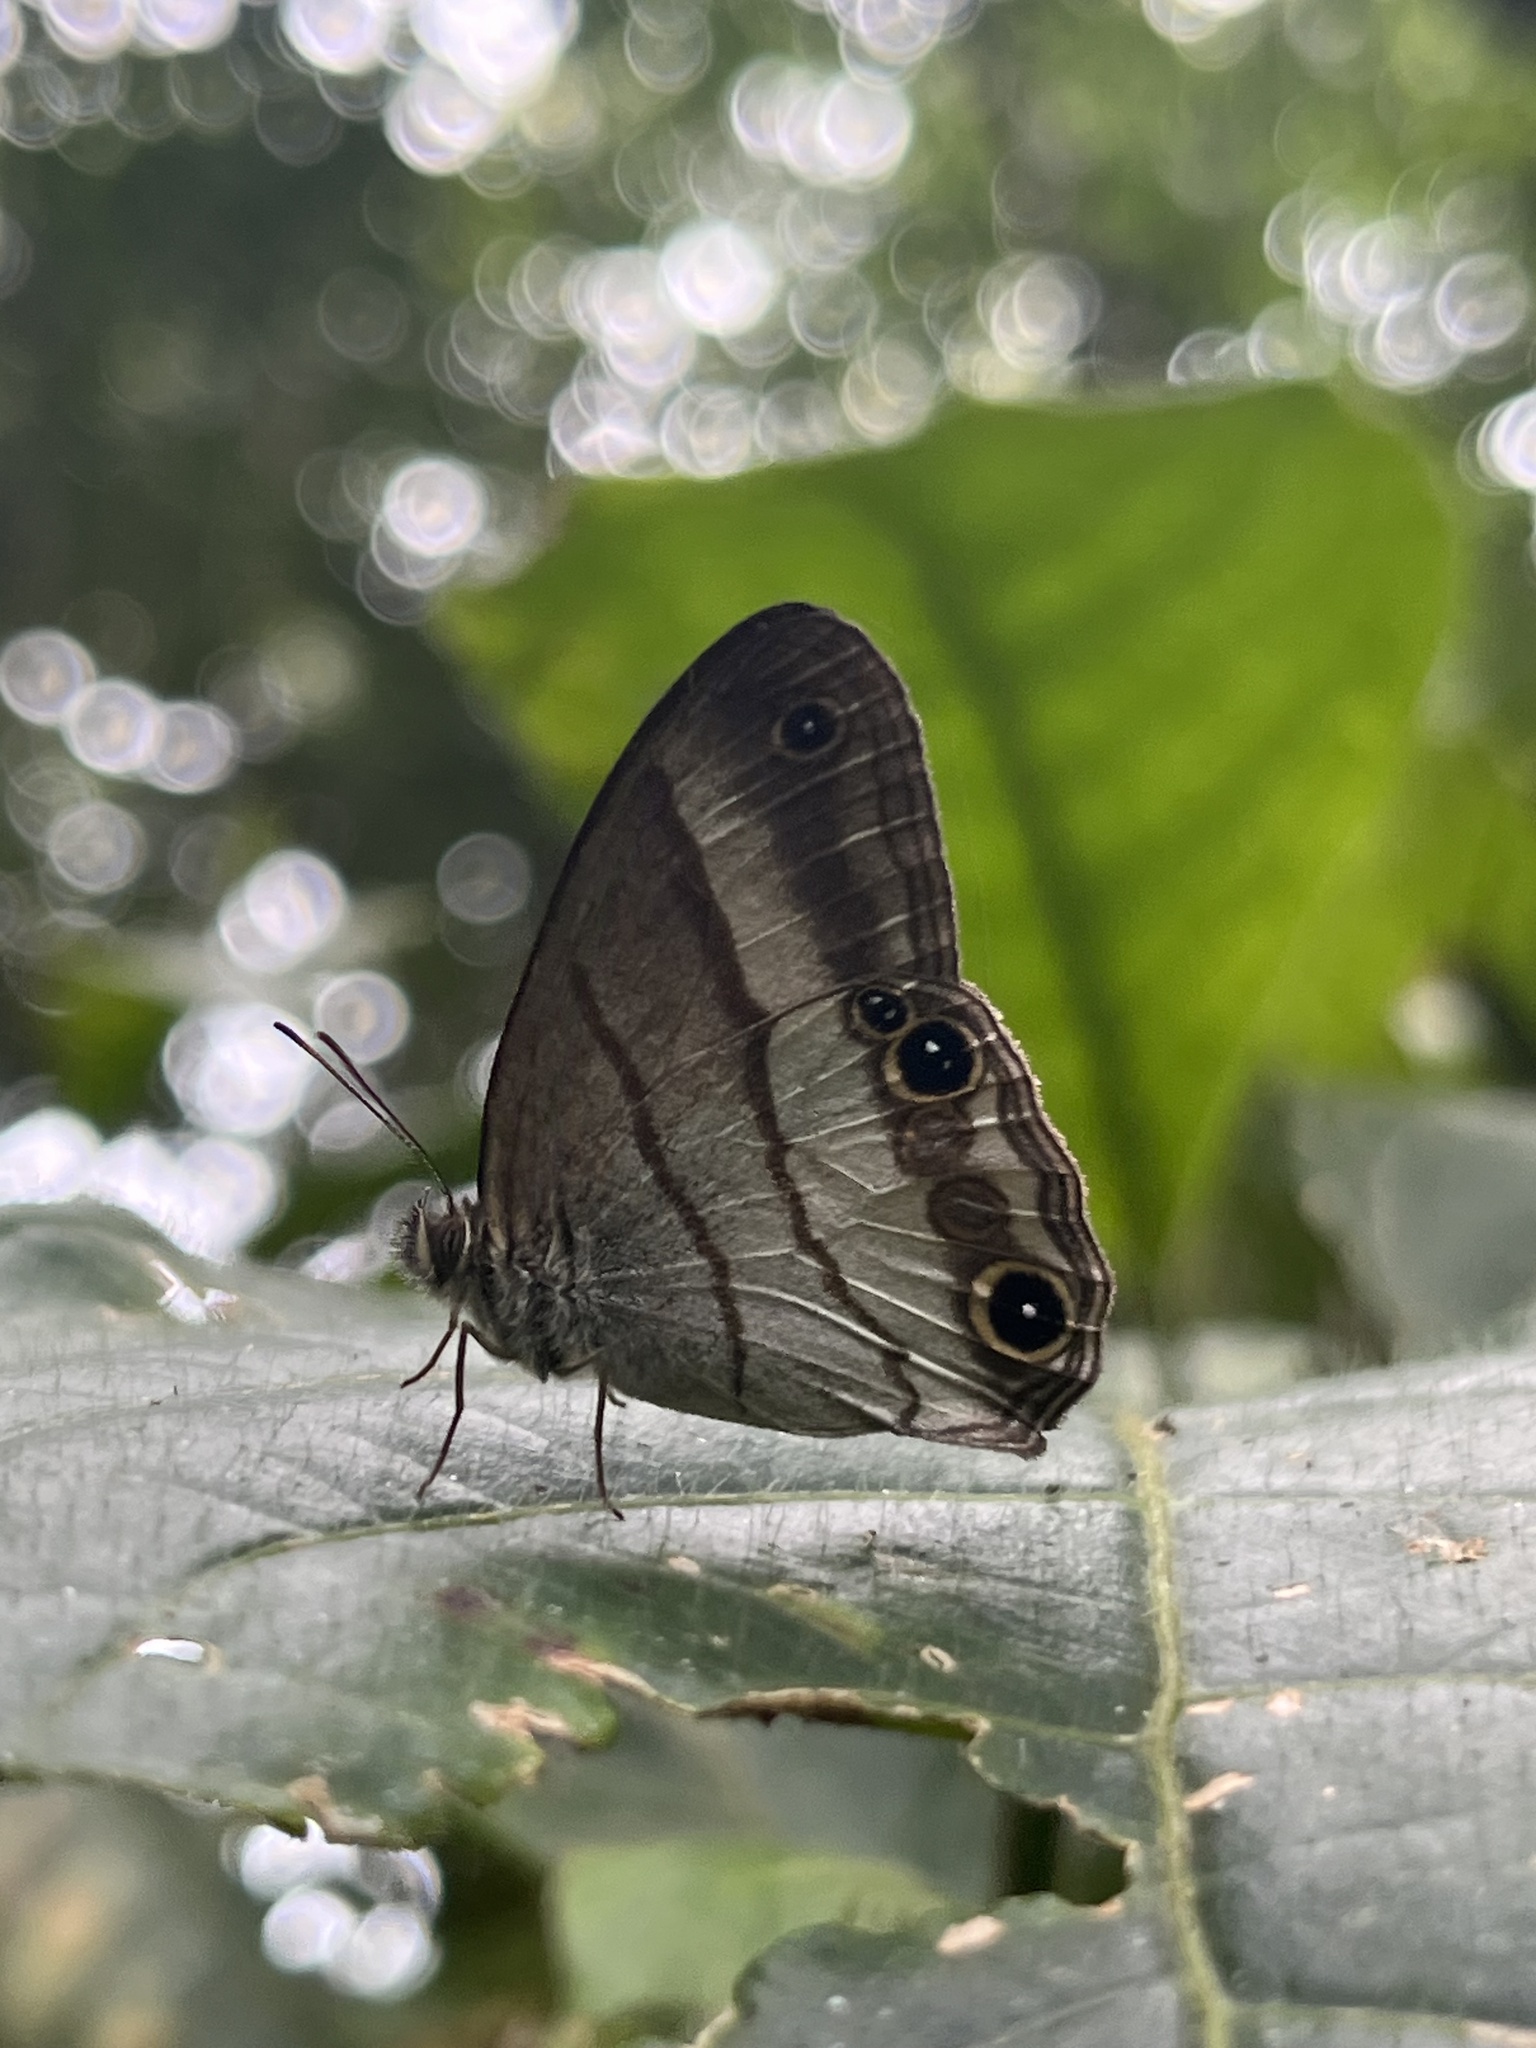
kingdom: Animalia
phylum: Arthropoda
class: Insecta
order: Lepidoptera
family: Nymphalidae
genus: Euptychoides
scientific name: Euptychoides saturnus
